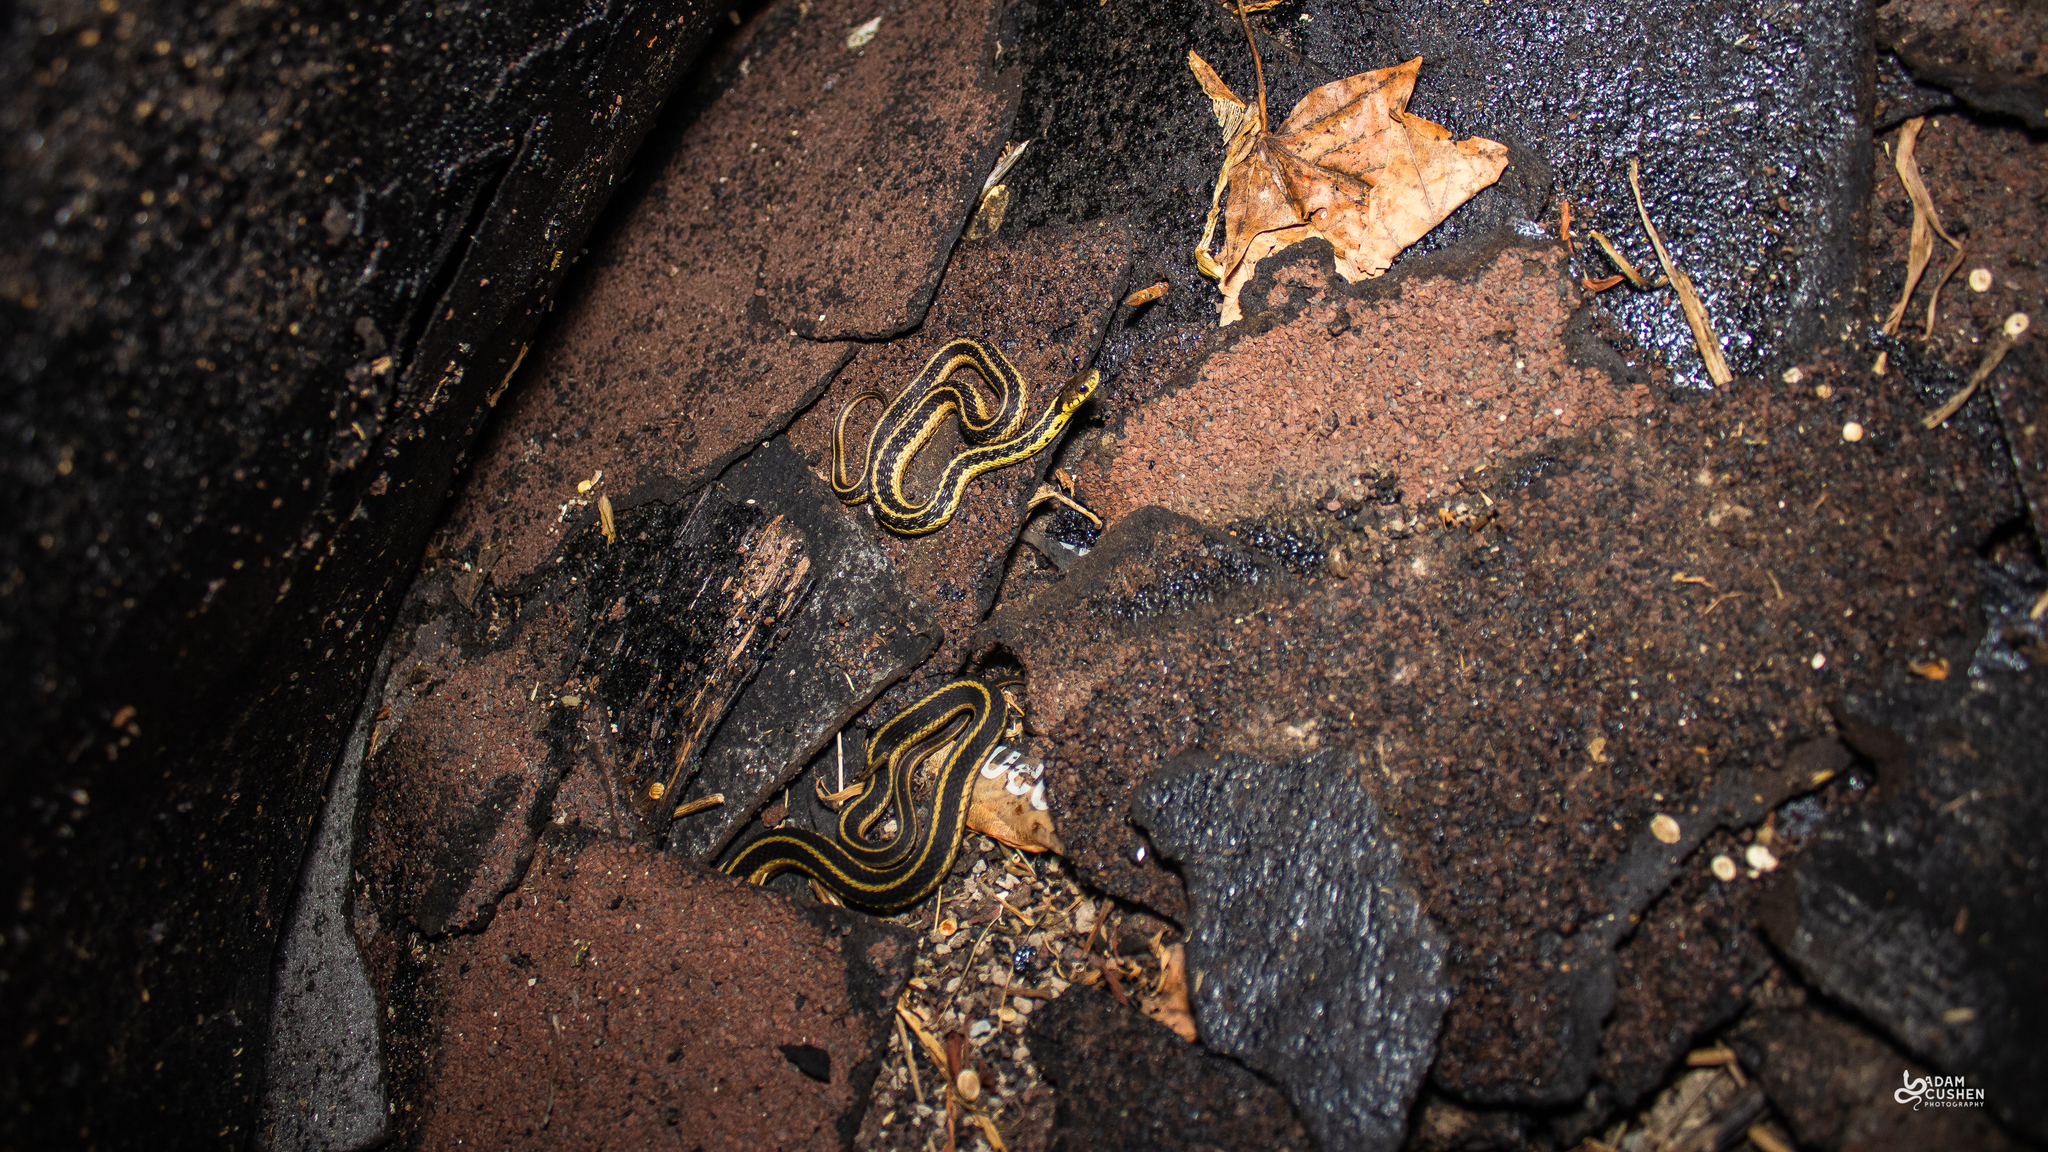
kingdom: Animalia
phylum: Chordata
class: Squamata
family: Colubridae
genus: Thamnophis
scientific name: Thamnophis sirtalis
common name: Common garter snake
